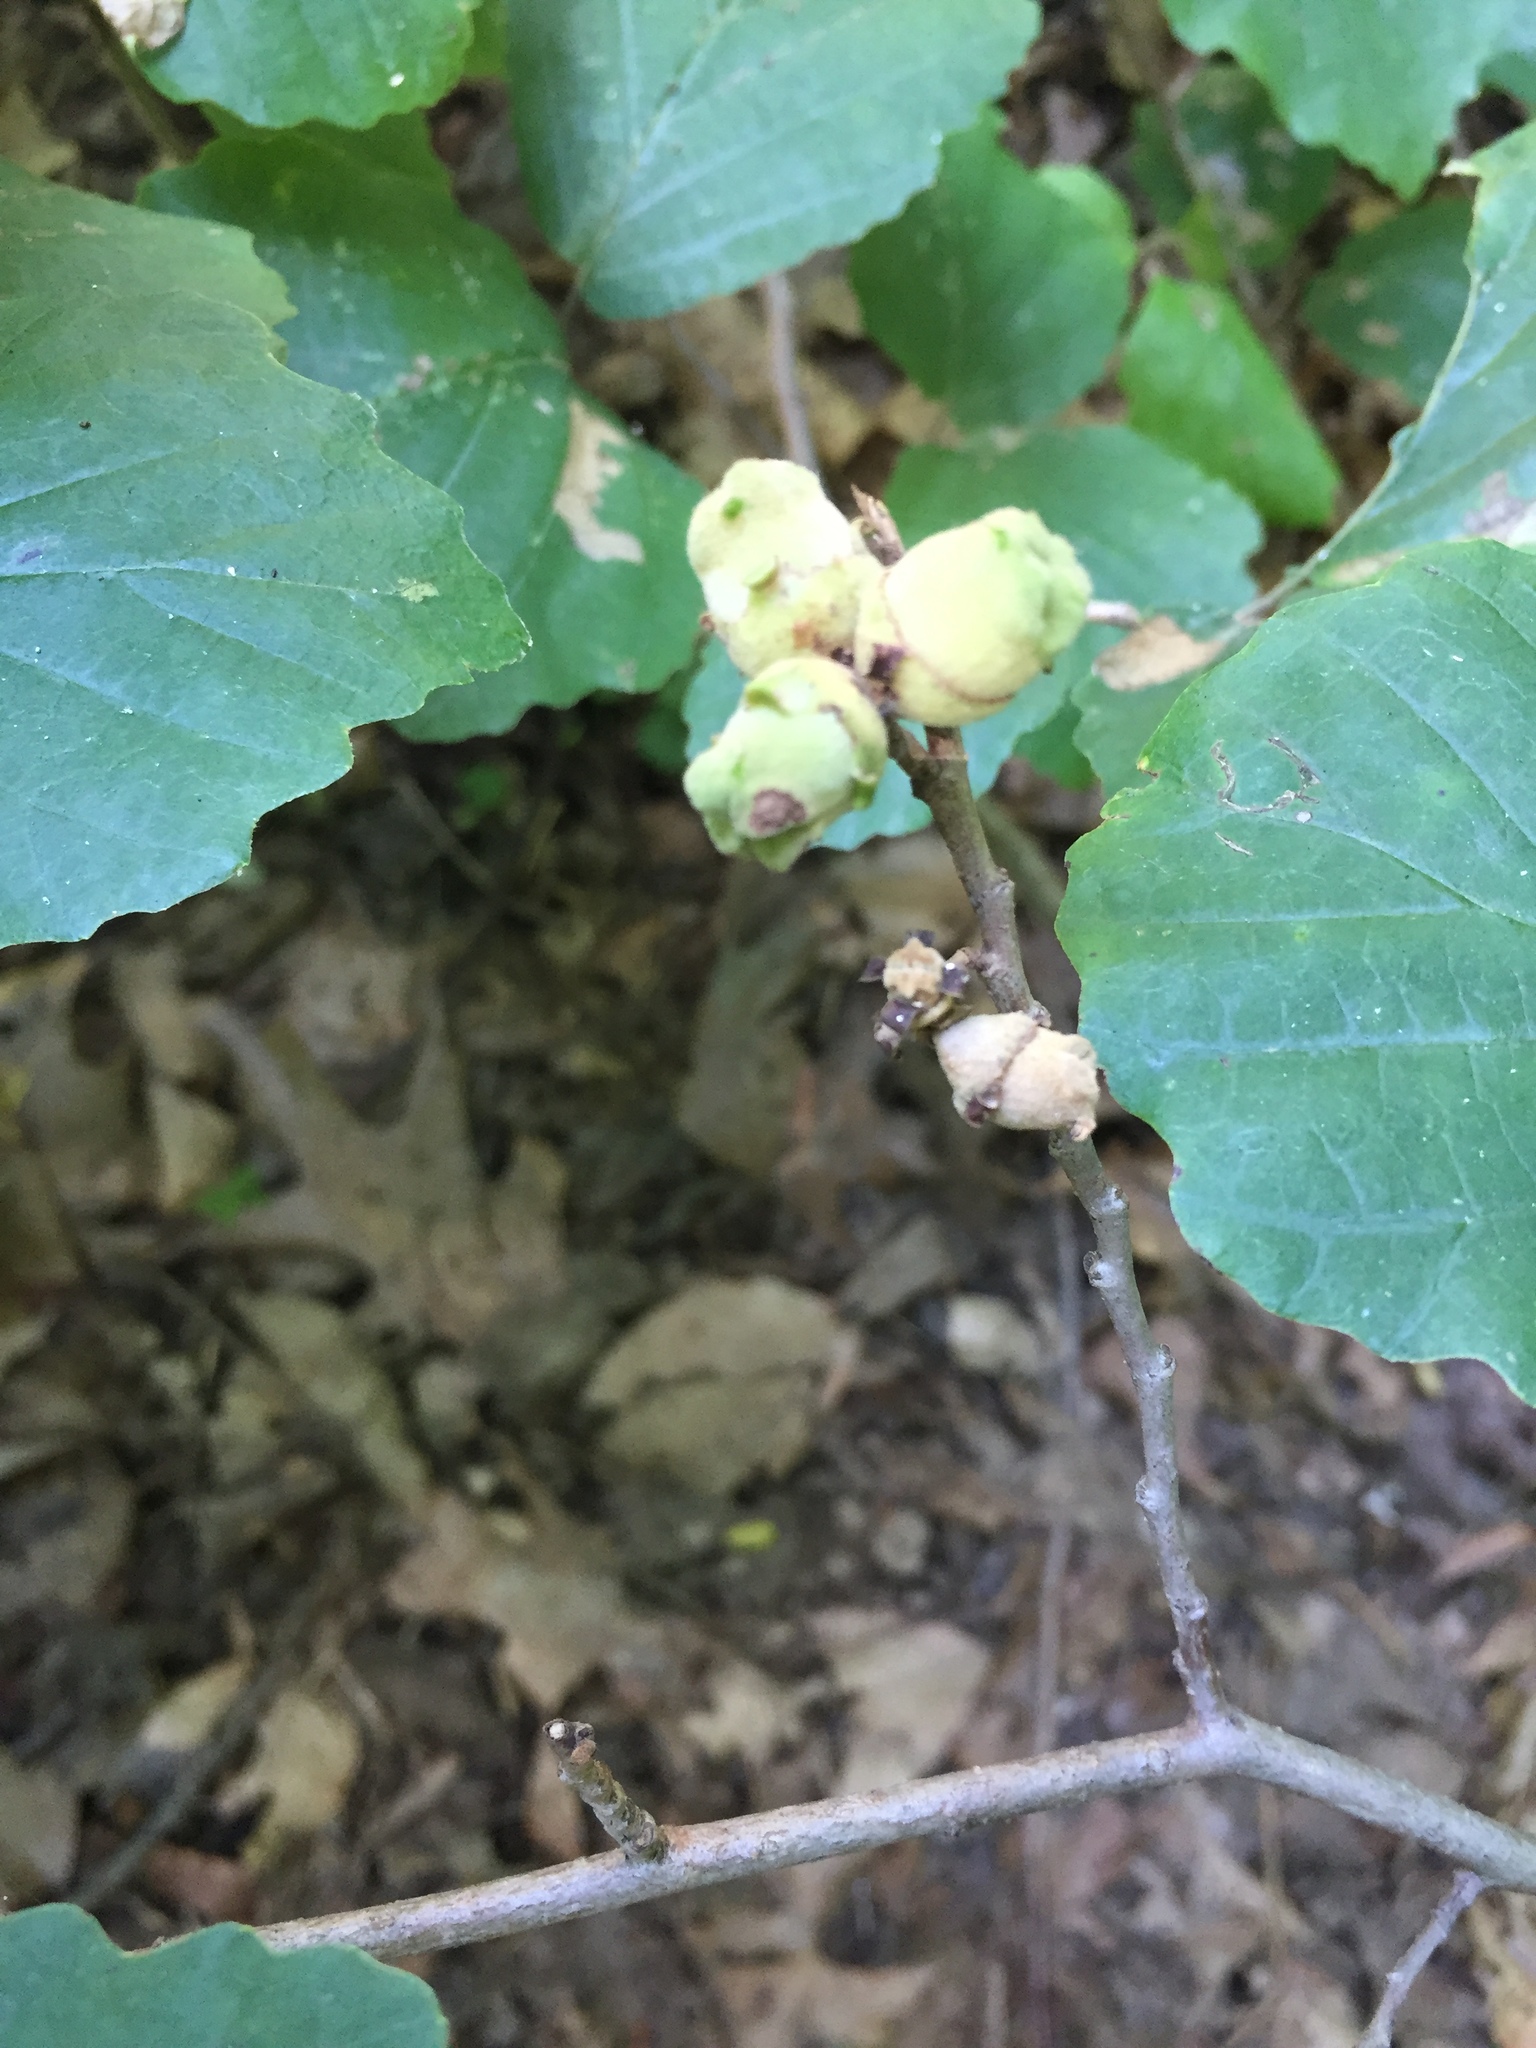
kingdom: Plantae
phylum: Tracheophyta
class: Magnoliopsida
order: Saxifragales
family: Hamamelidaceae
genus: Hamamelis
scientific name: Hamamelis virginiana
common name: Witch-hazel
